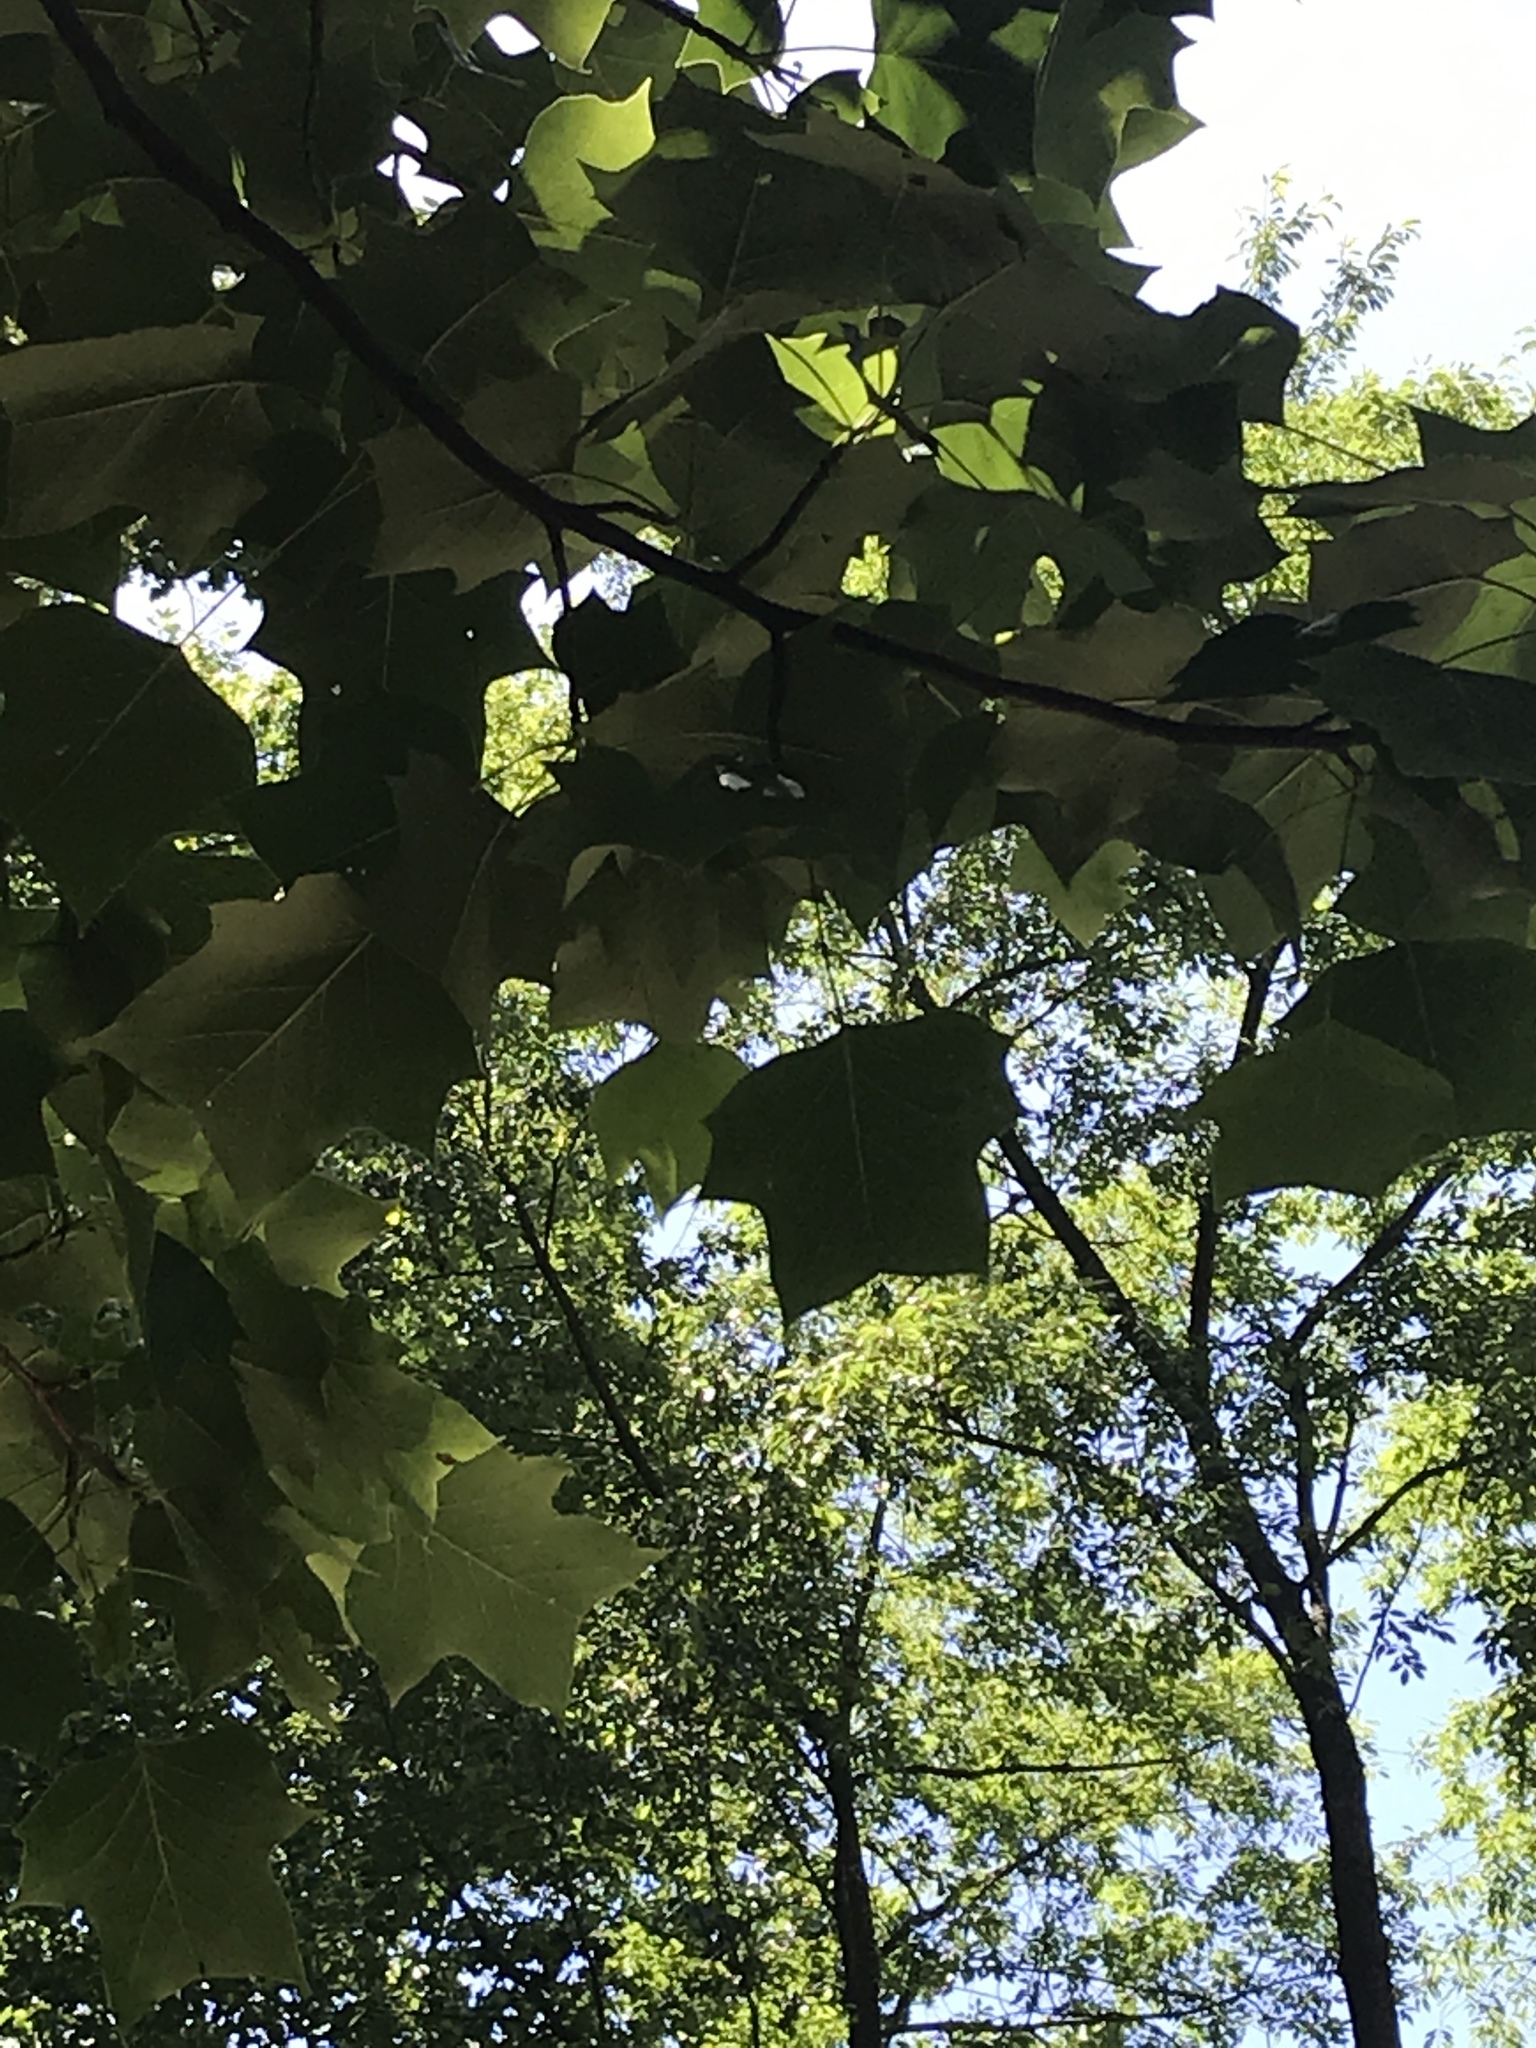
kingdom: Plantae
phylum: Tracheophyta
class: Magnoliopsida
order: Magnoliales
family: Magnoliaceae
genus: Liriodendron
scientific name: Liriodendron tulipifera
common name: Tulip tree
